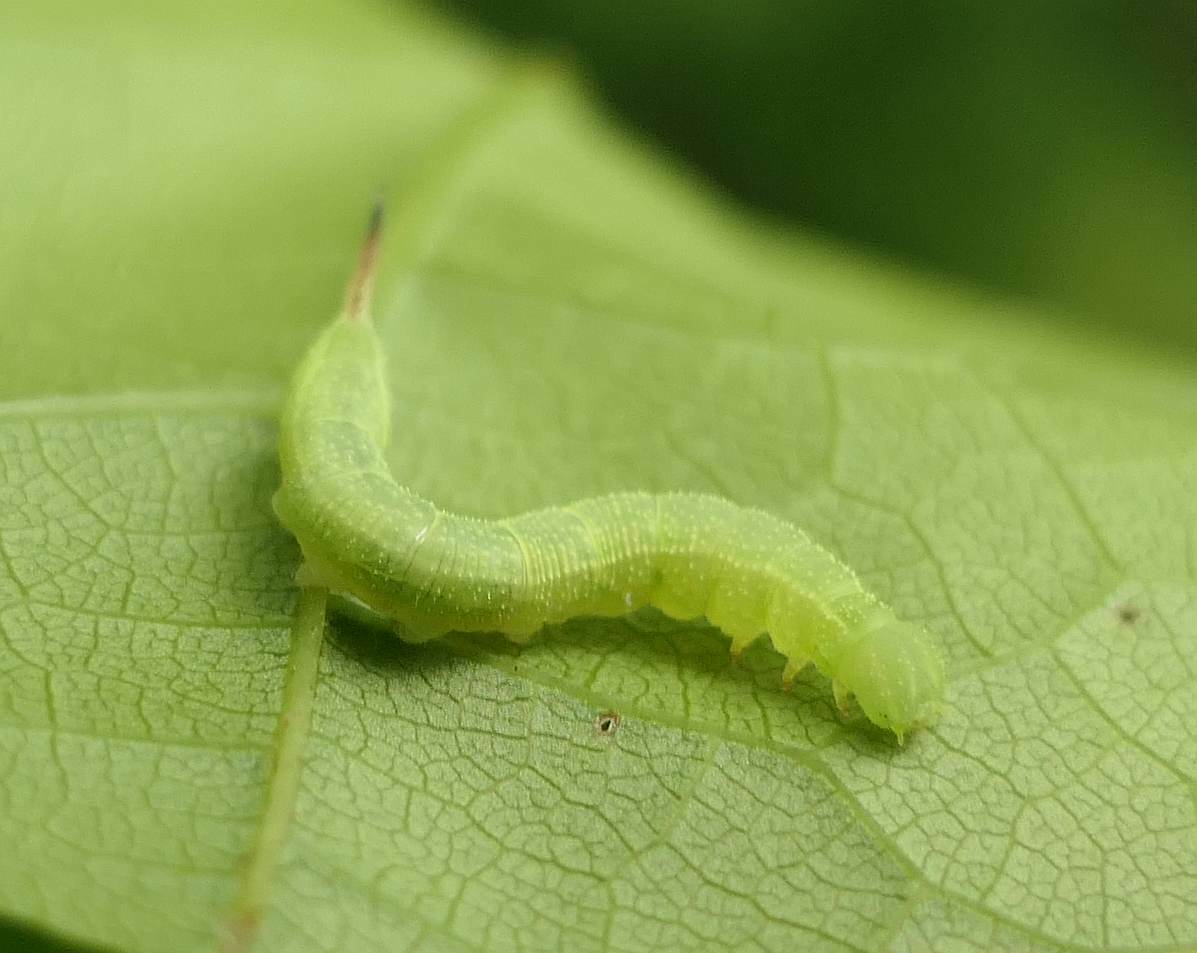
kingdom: Animalia
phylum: Arthropoda
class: Insecta
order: Lepidoptera
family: Sphingidae
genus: Darapsa
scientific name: Darapsa myron
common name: Hog sphinx
